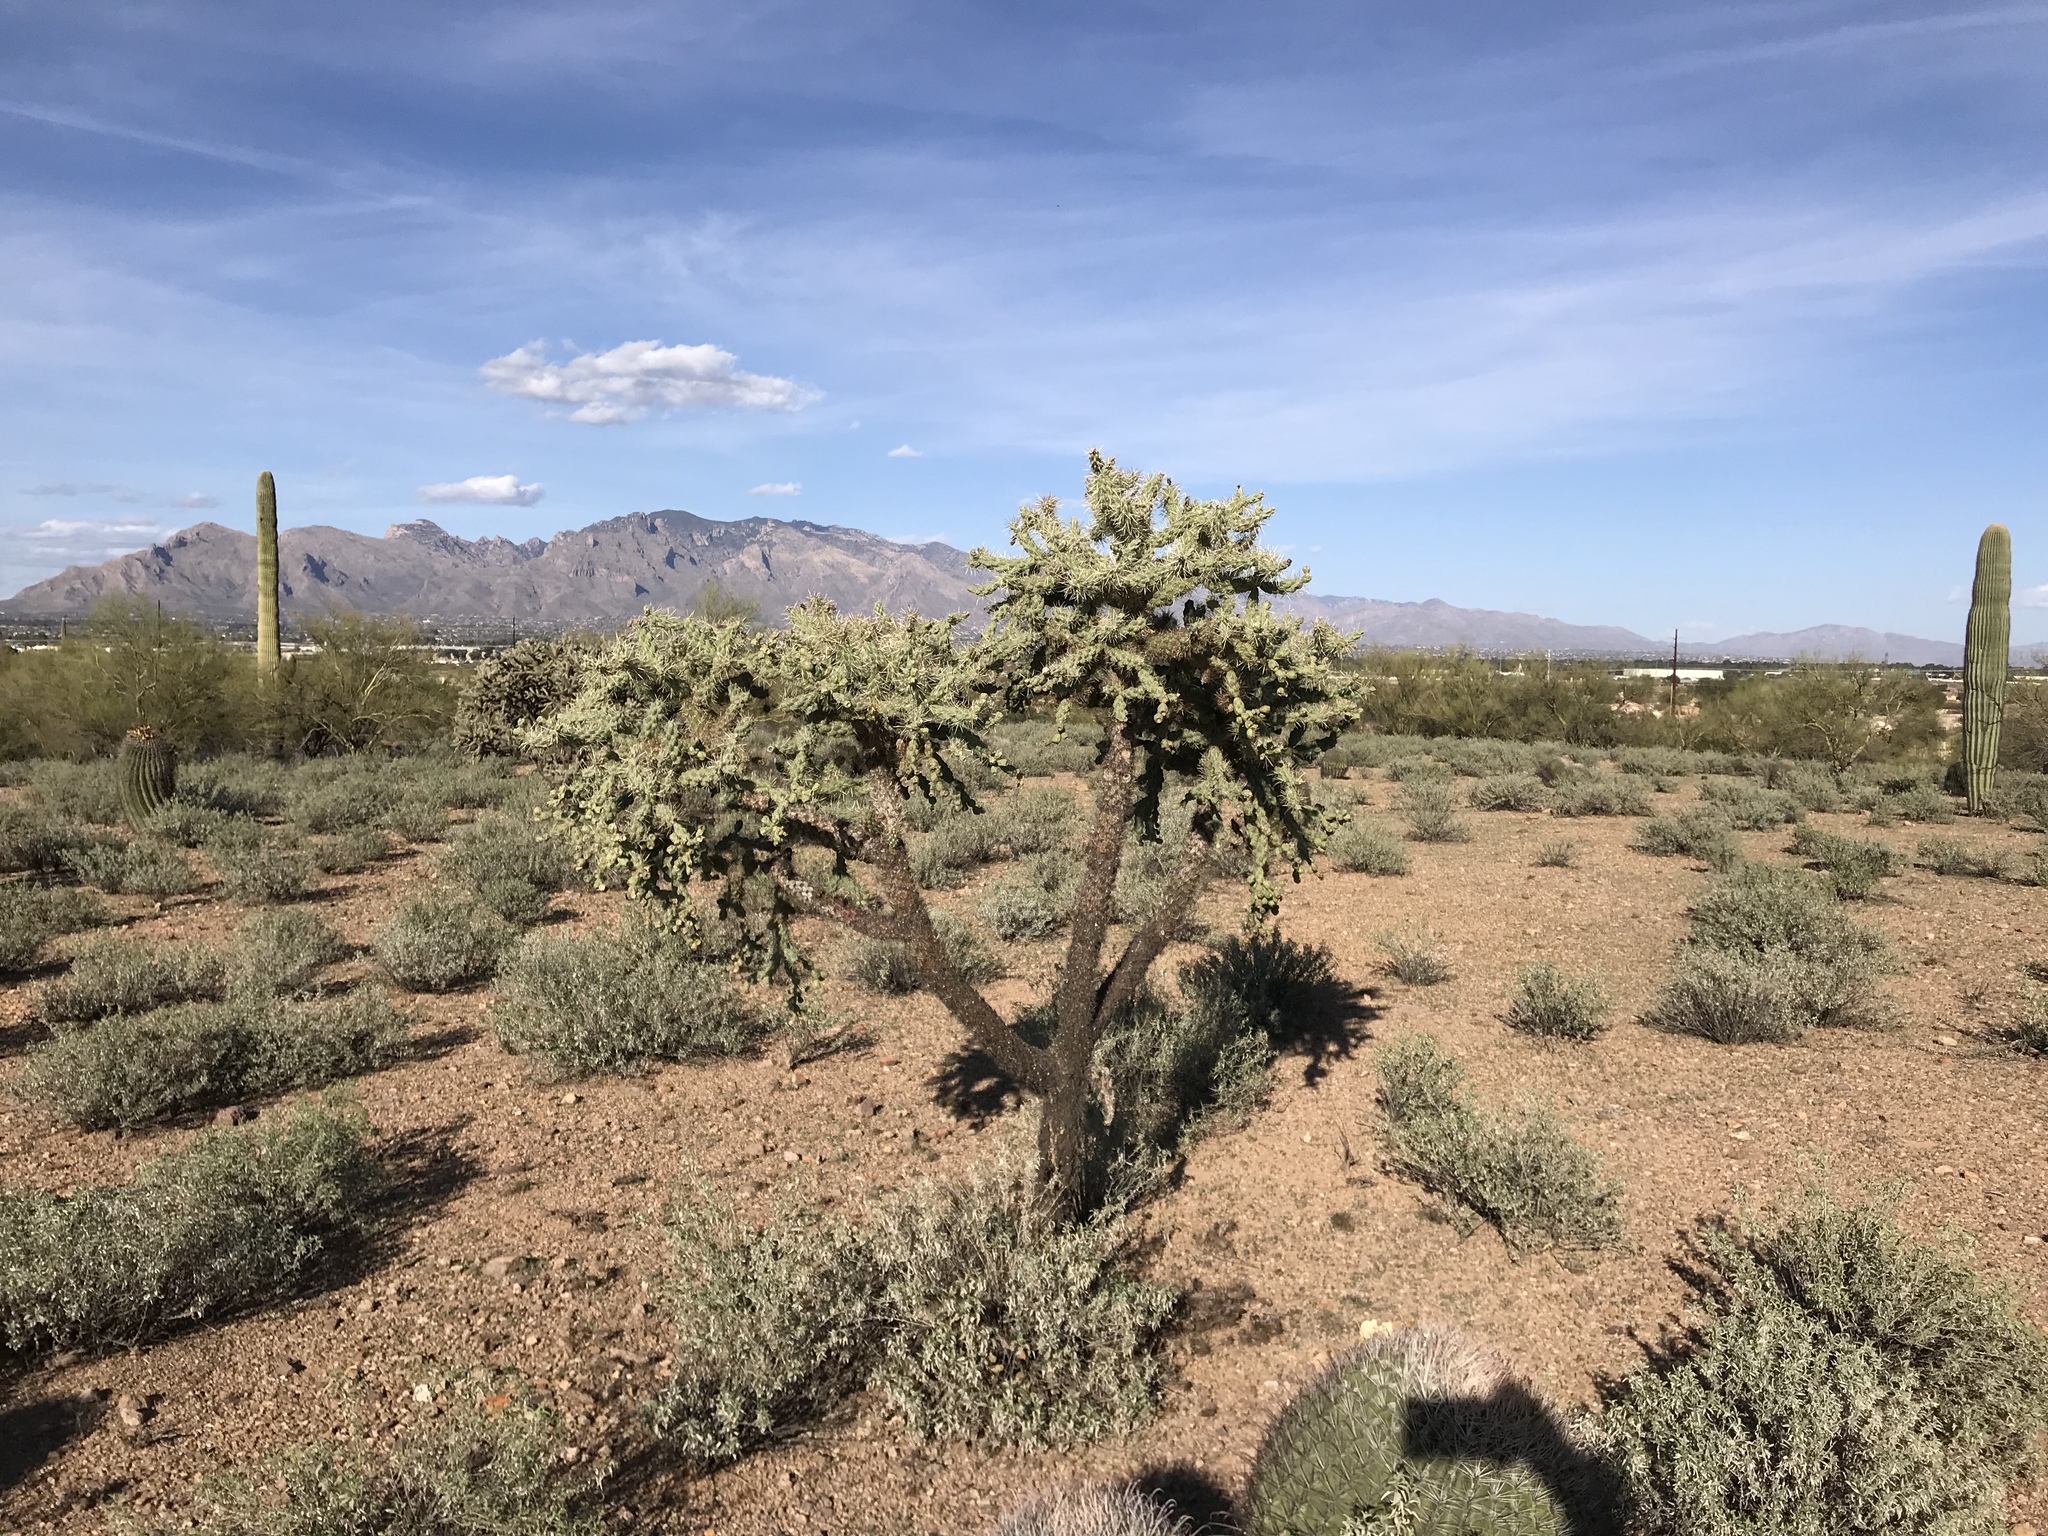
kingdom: Plantae
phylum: Tracheophyta
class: Magnoliopsida
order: Caryophyllales
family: Cactaceae
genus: Cylindropuntia
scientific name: Cylindropuntia fulgida
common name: Jumping cholla
